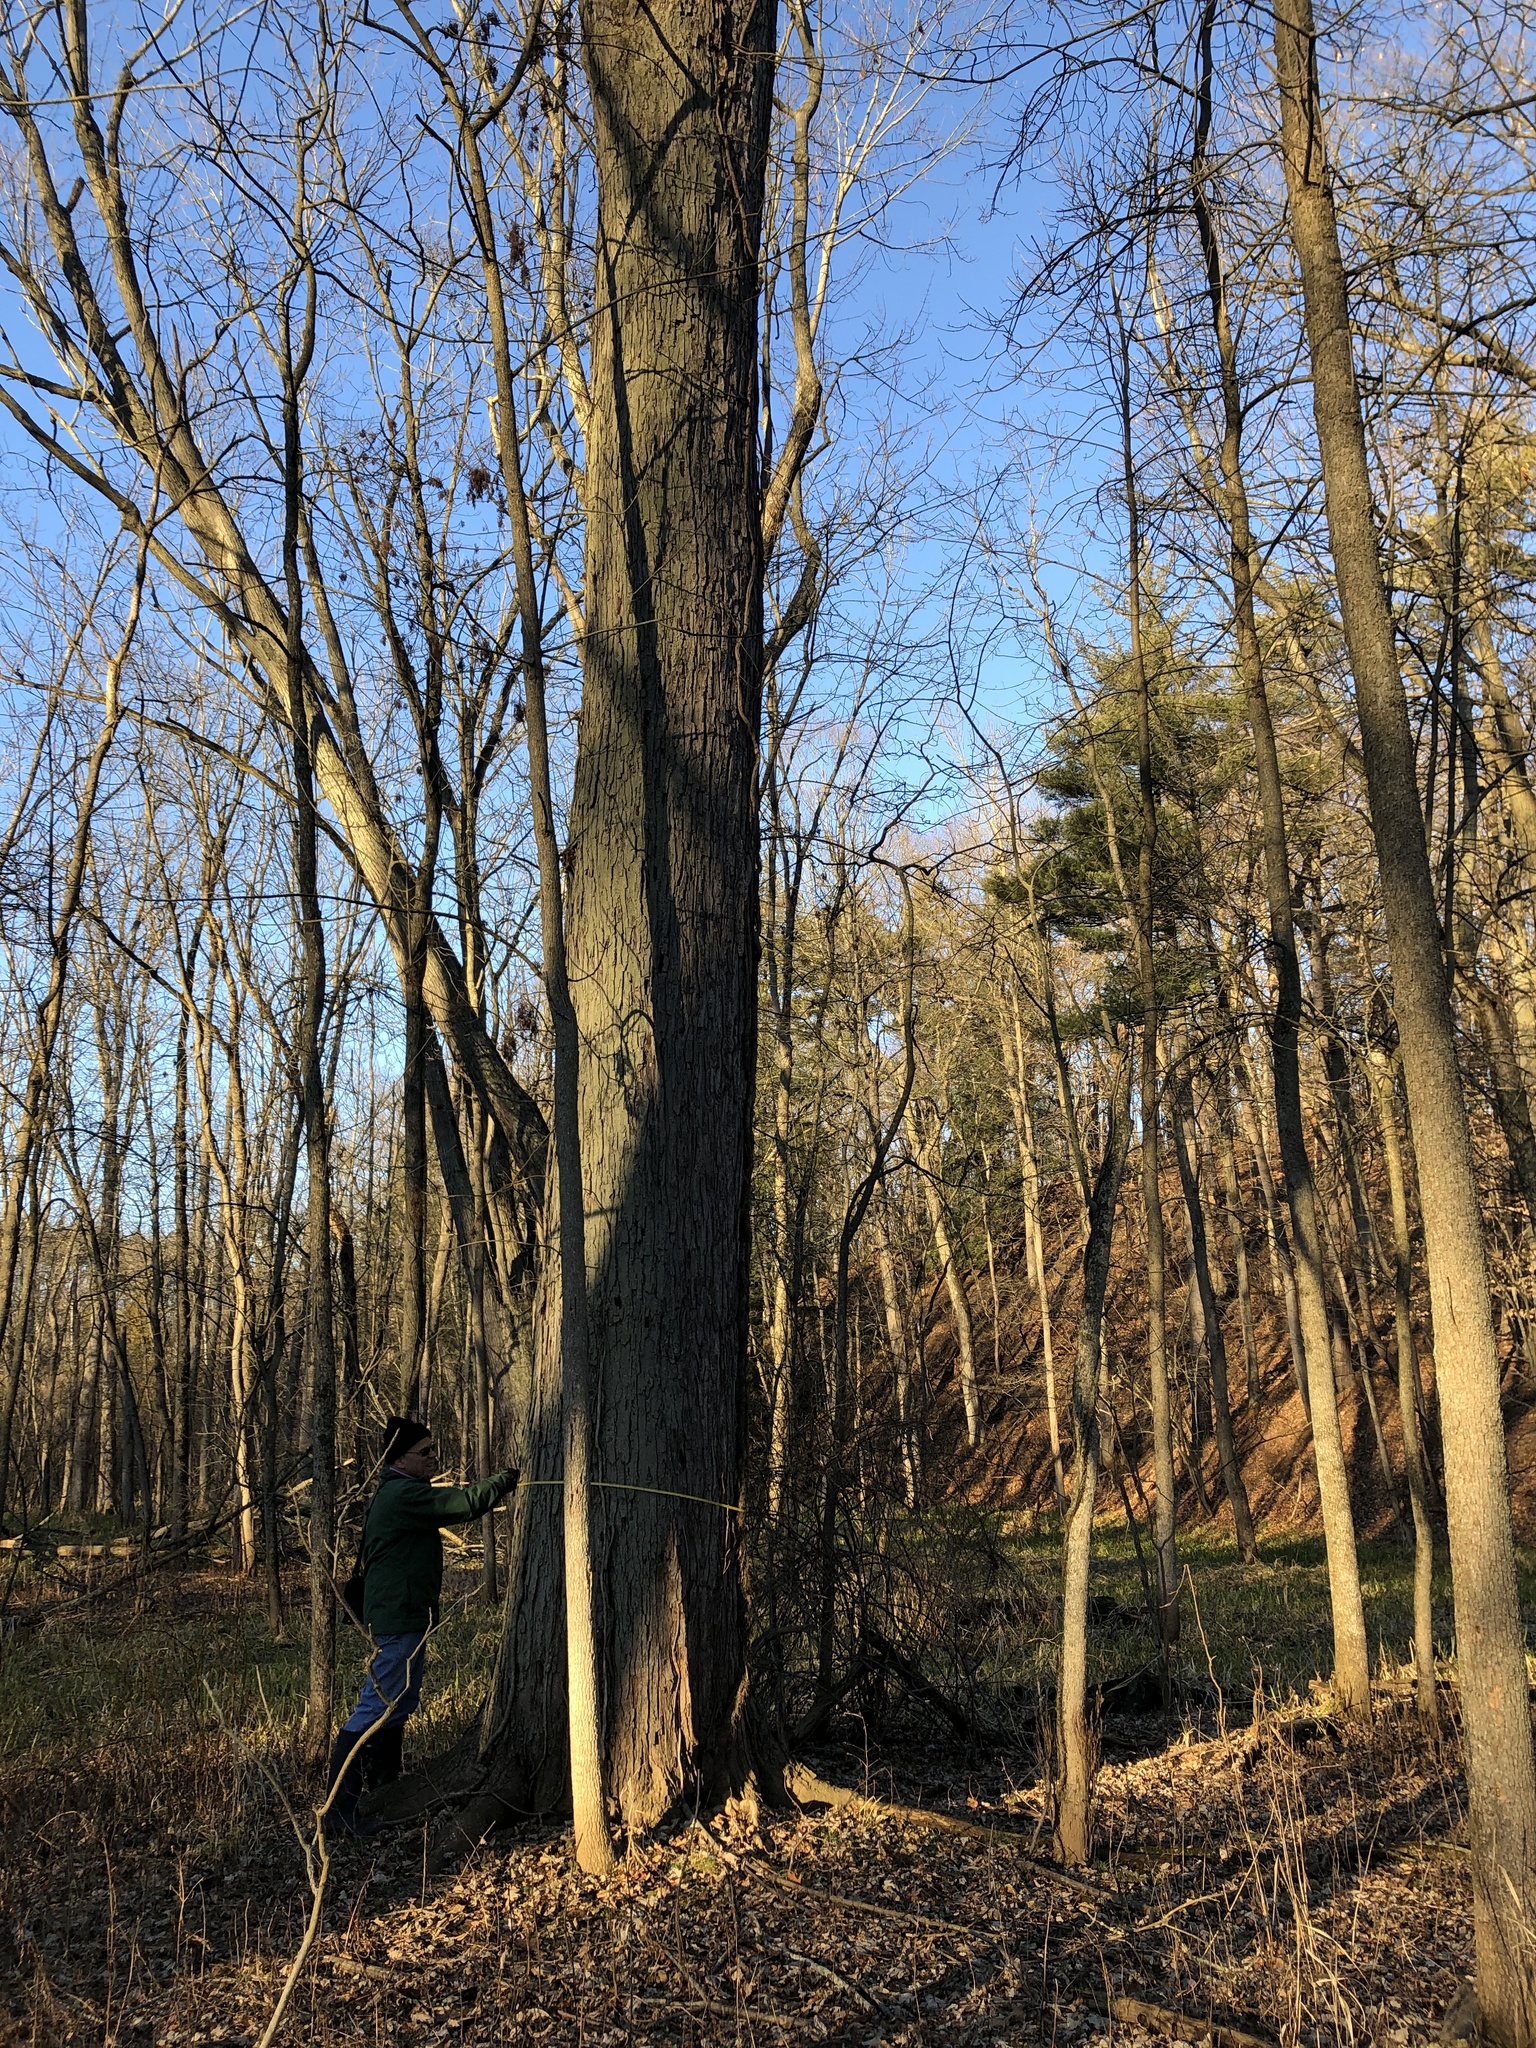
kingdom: Plantae
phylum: Tracheophyta
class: Magnoliopsida
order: Sapindales
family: Sapindaceae
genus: Acer
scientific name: Acer saccharinum
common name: Silver maple
